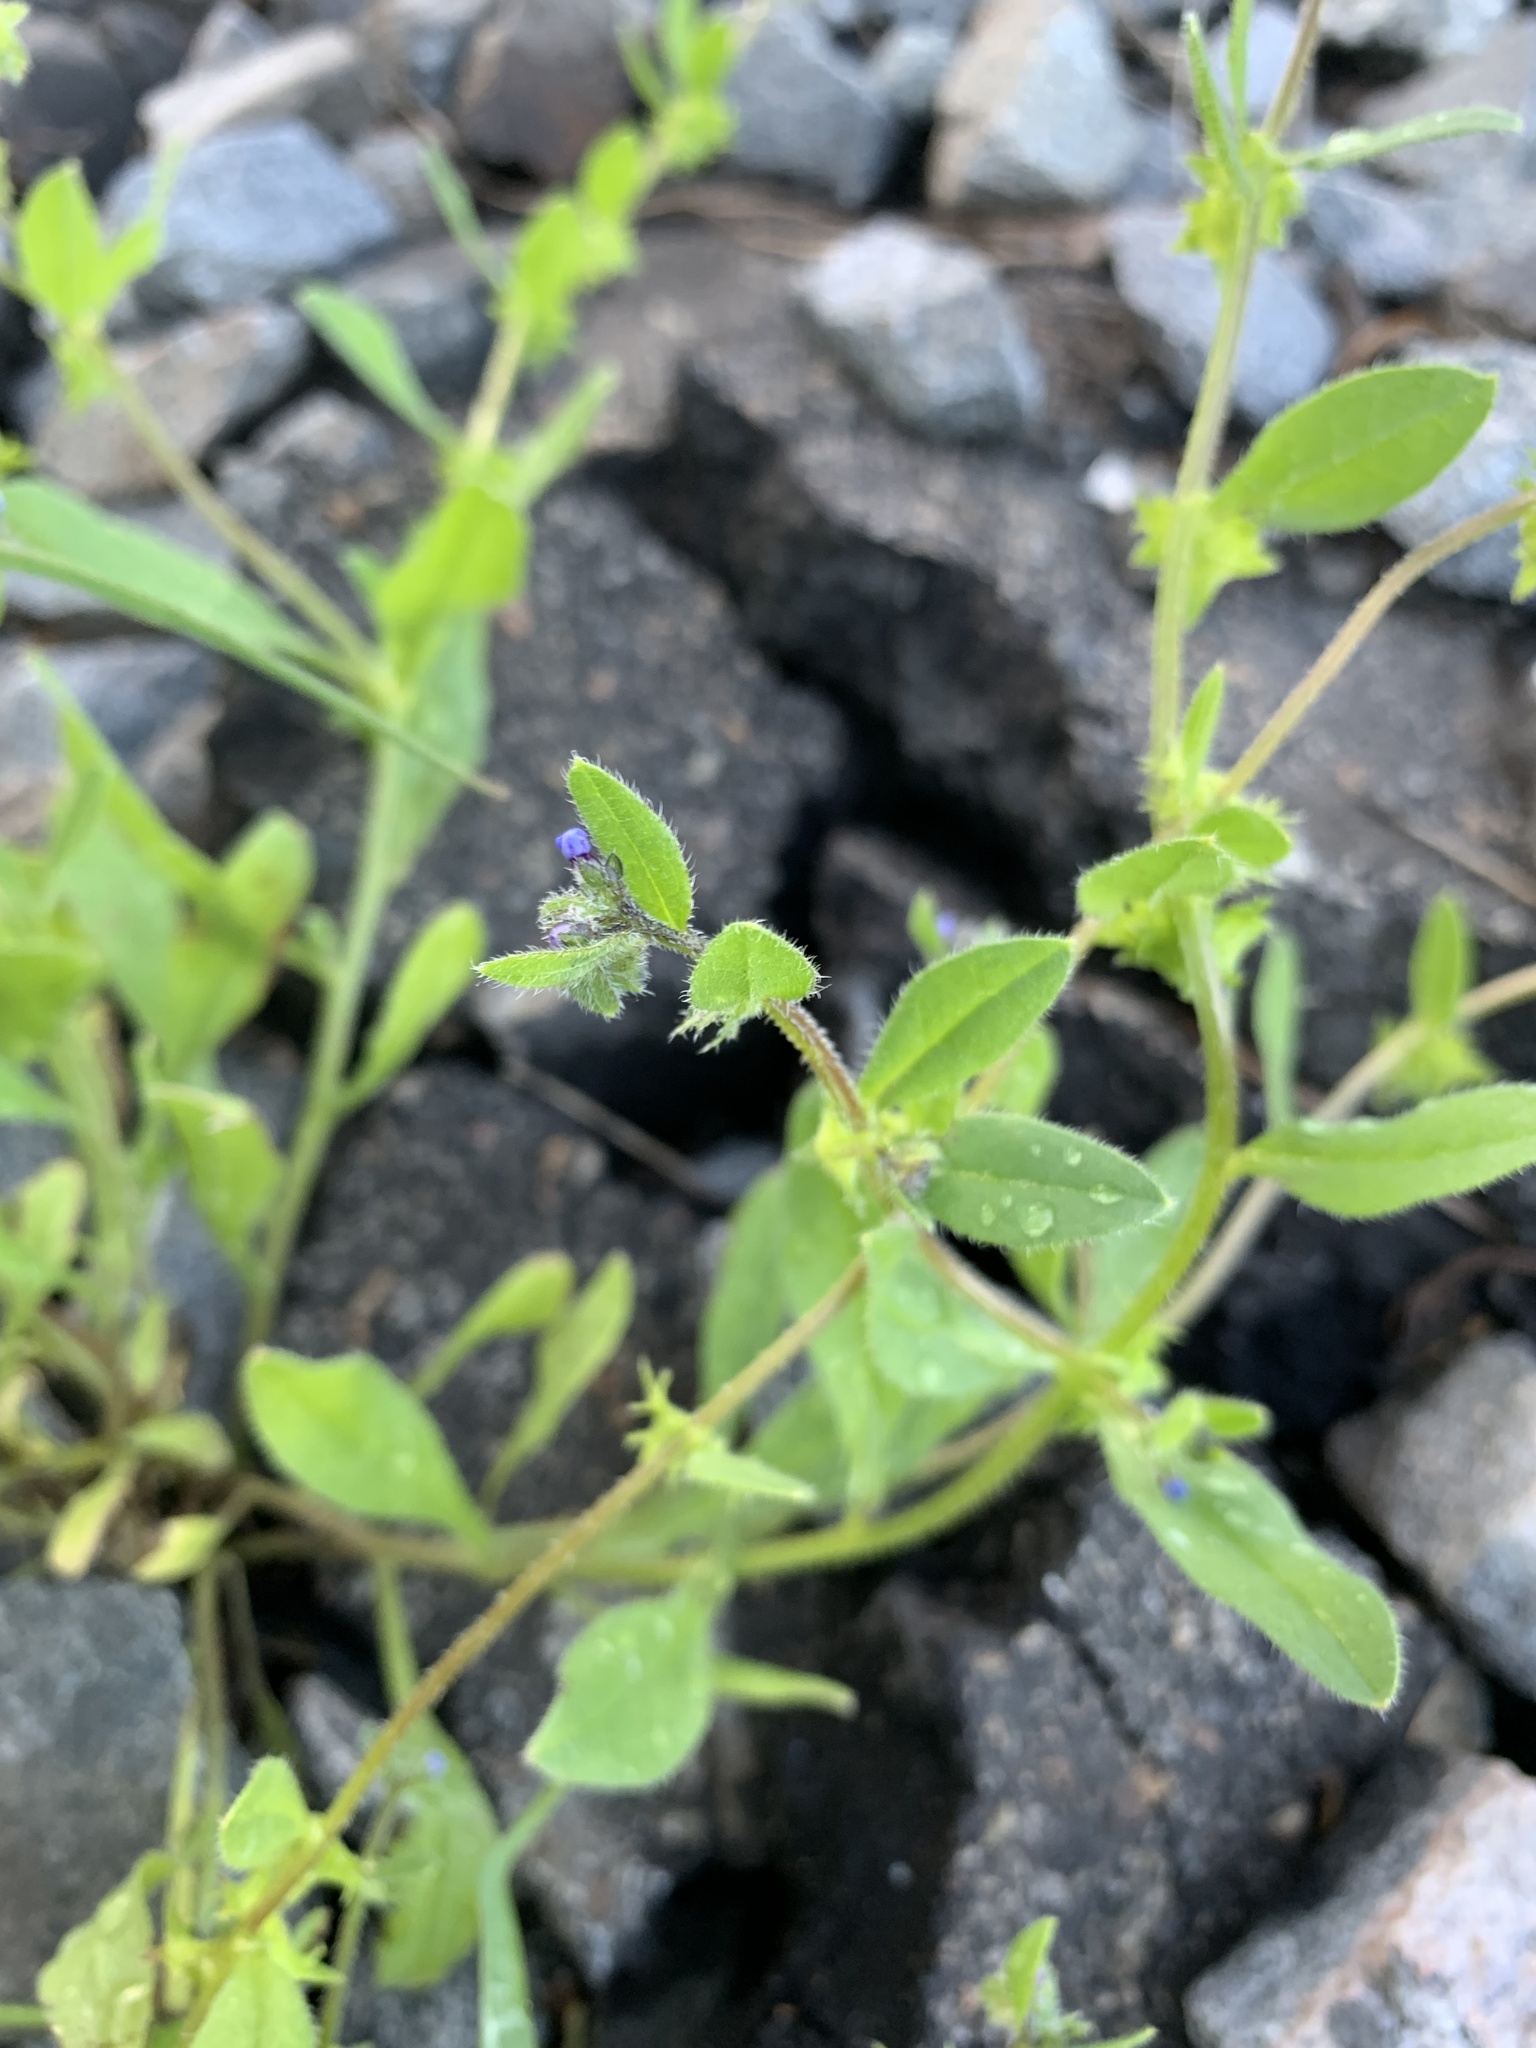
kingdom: Plantae
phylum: Tracheophyta
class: Magnoliopsida
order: Boraginales
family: Boraginaceae
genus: Asperugo
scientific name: Asperugo procumbens
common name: Madwort
